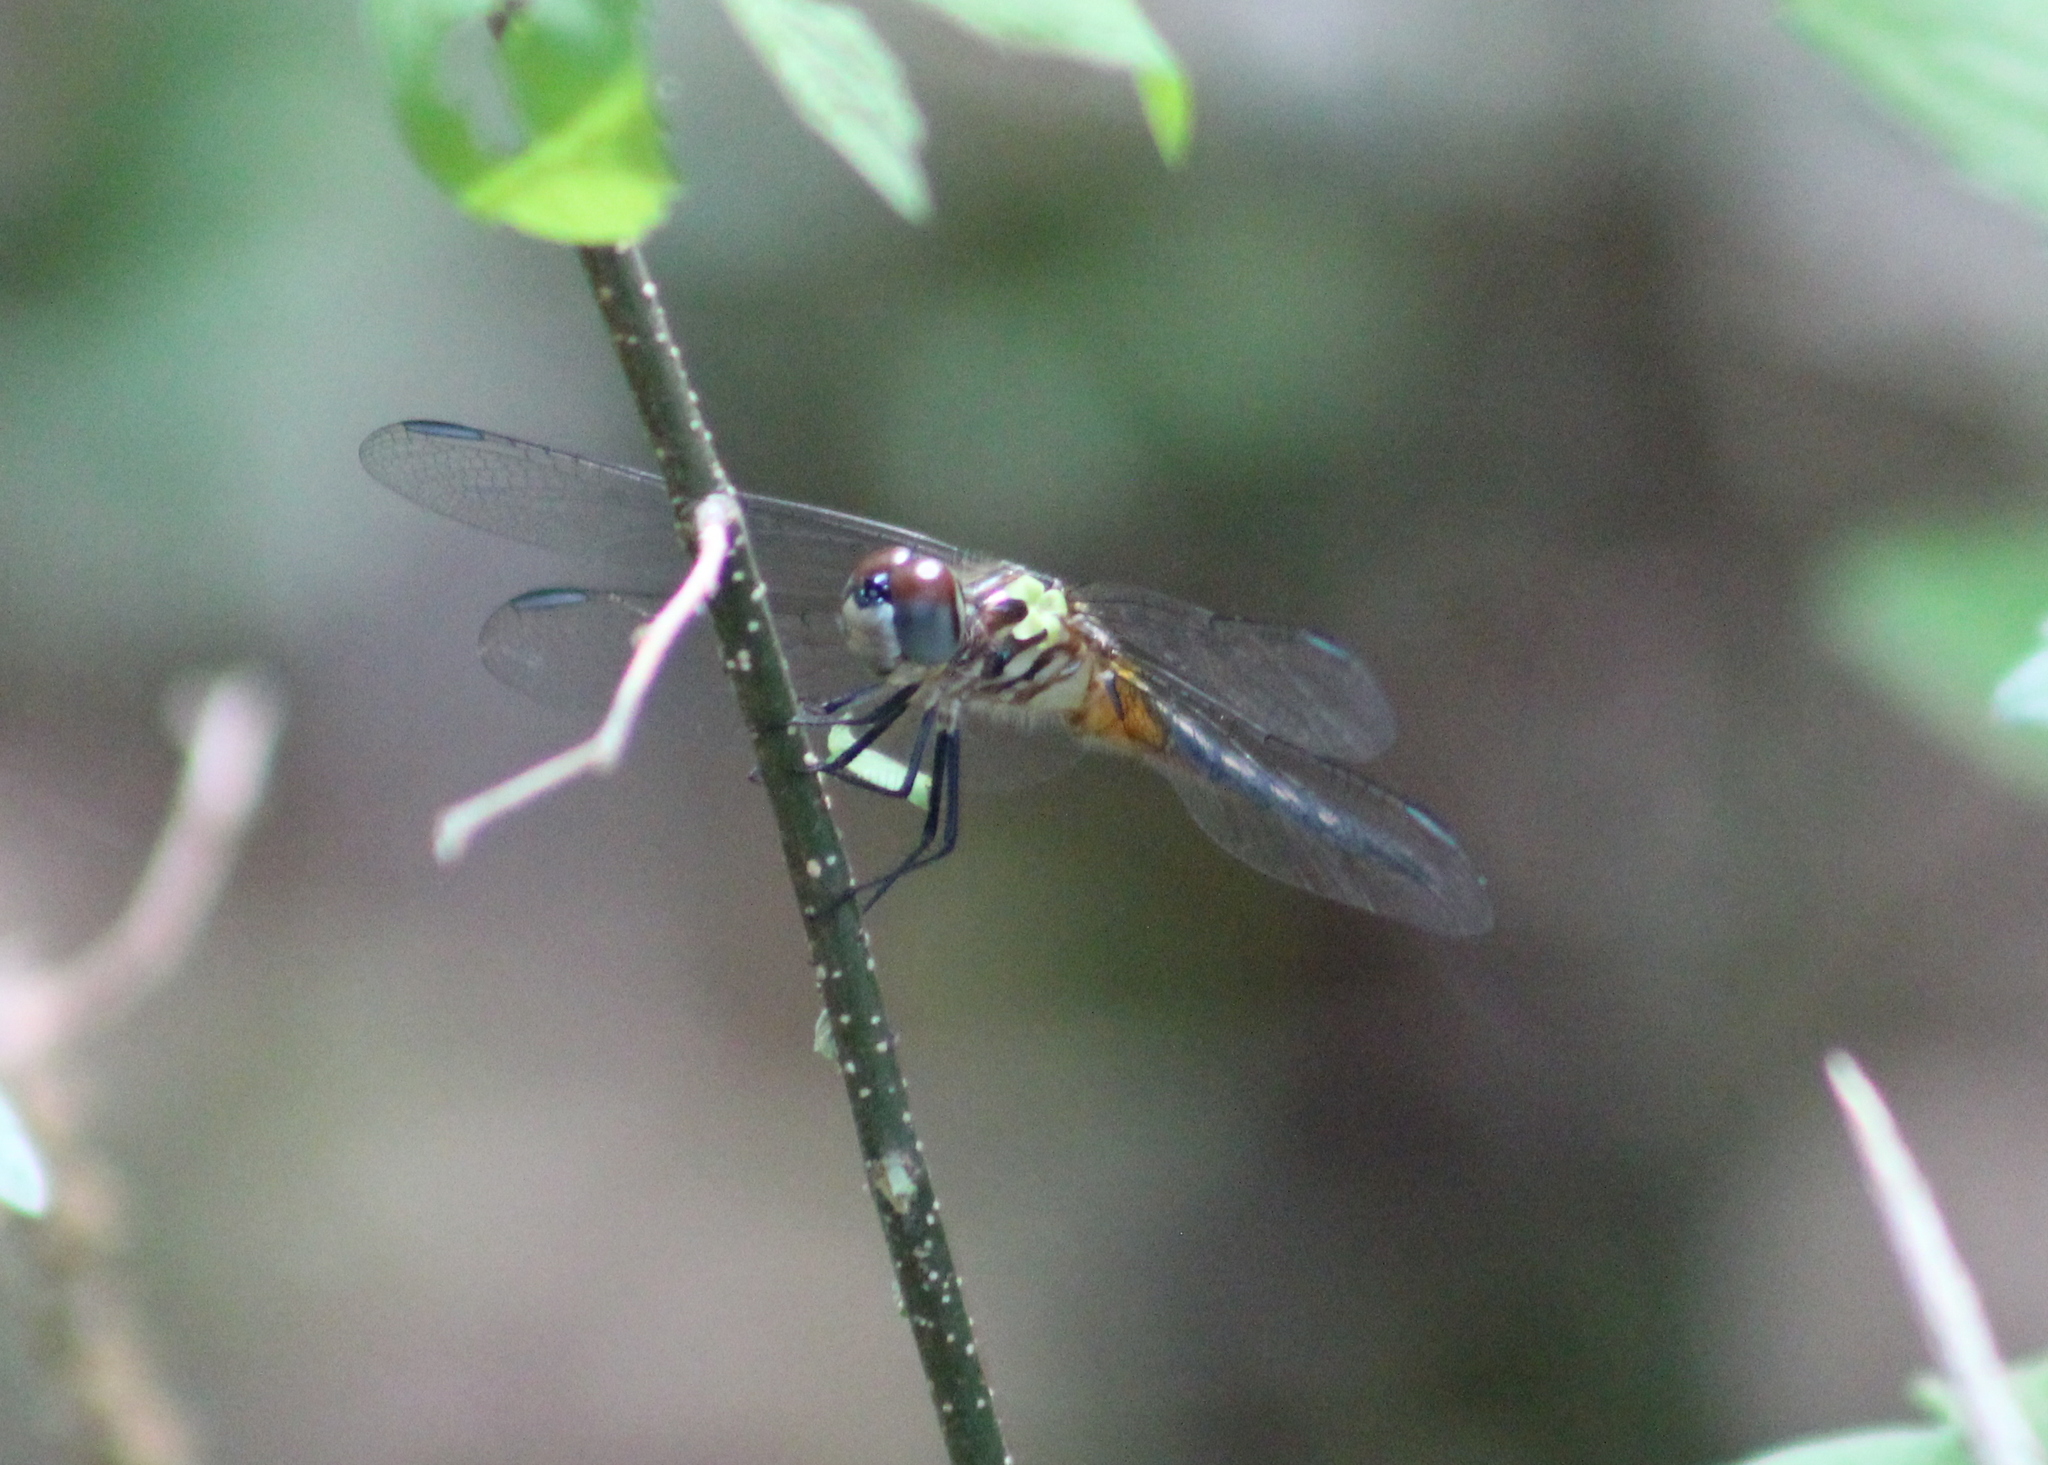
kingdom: Animalia
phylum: Arthropoda
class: Insecta
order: Odonata
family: Libellulidae
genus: Pachydiplax
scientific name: Pachydiplax longipennis
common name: Blue dasher
